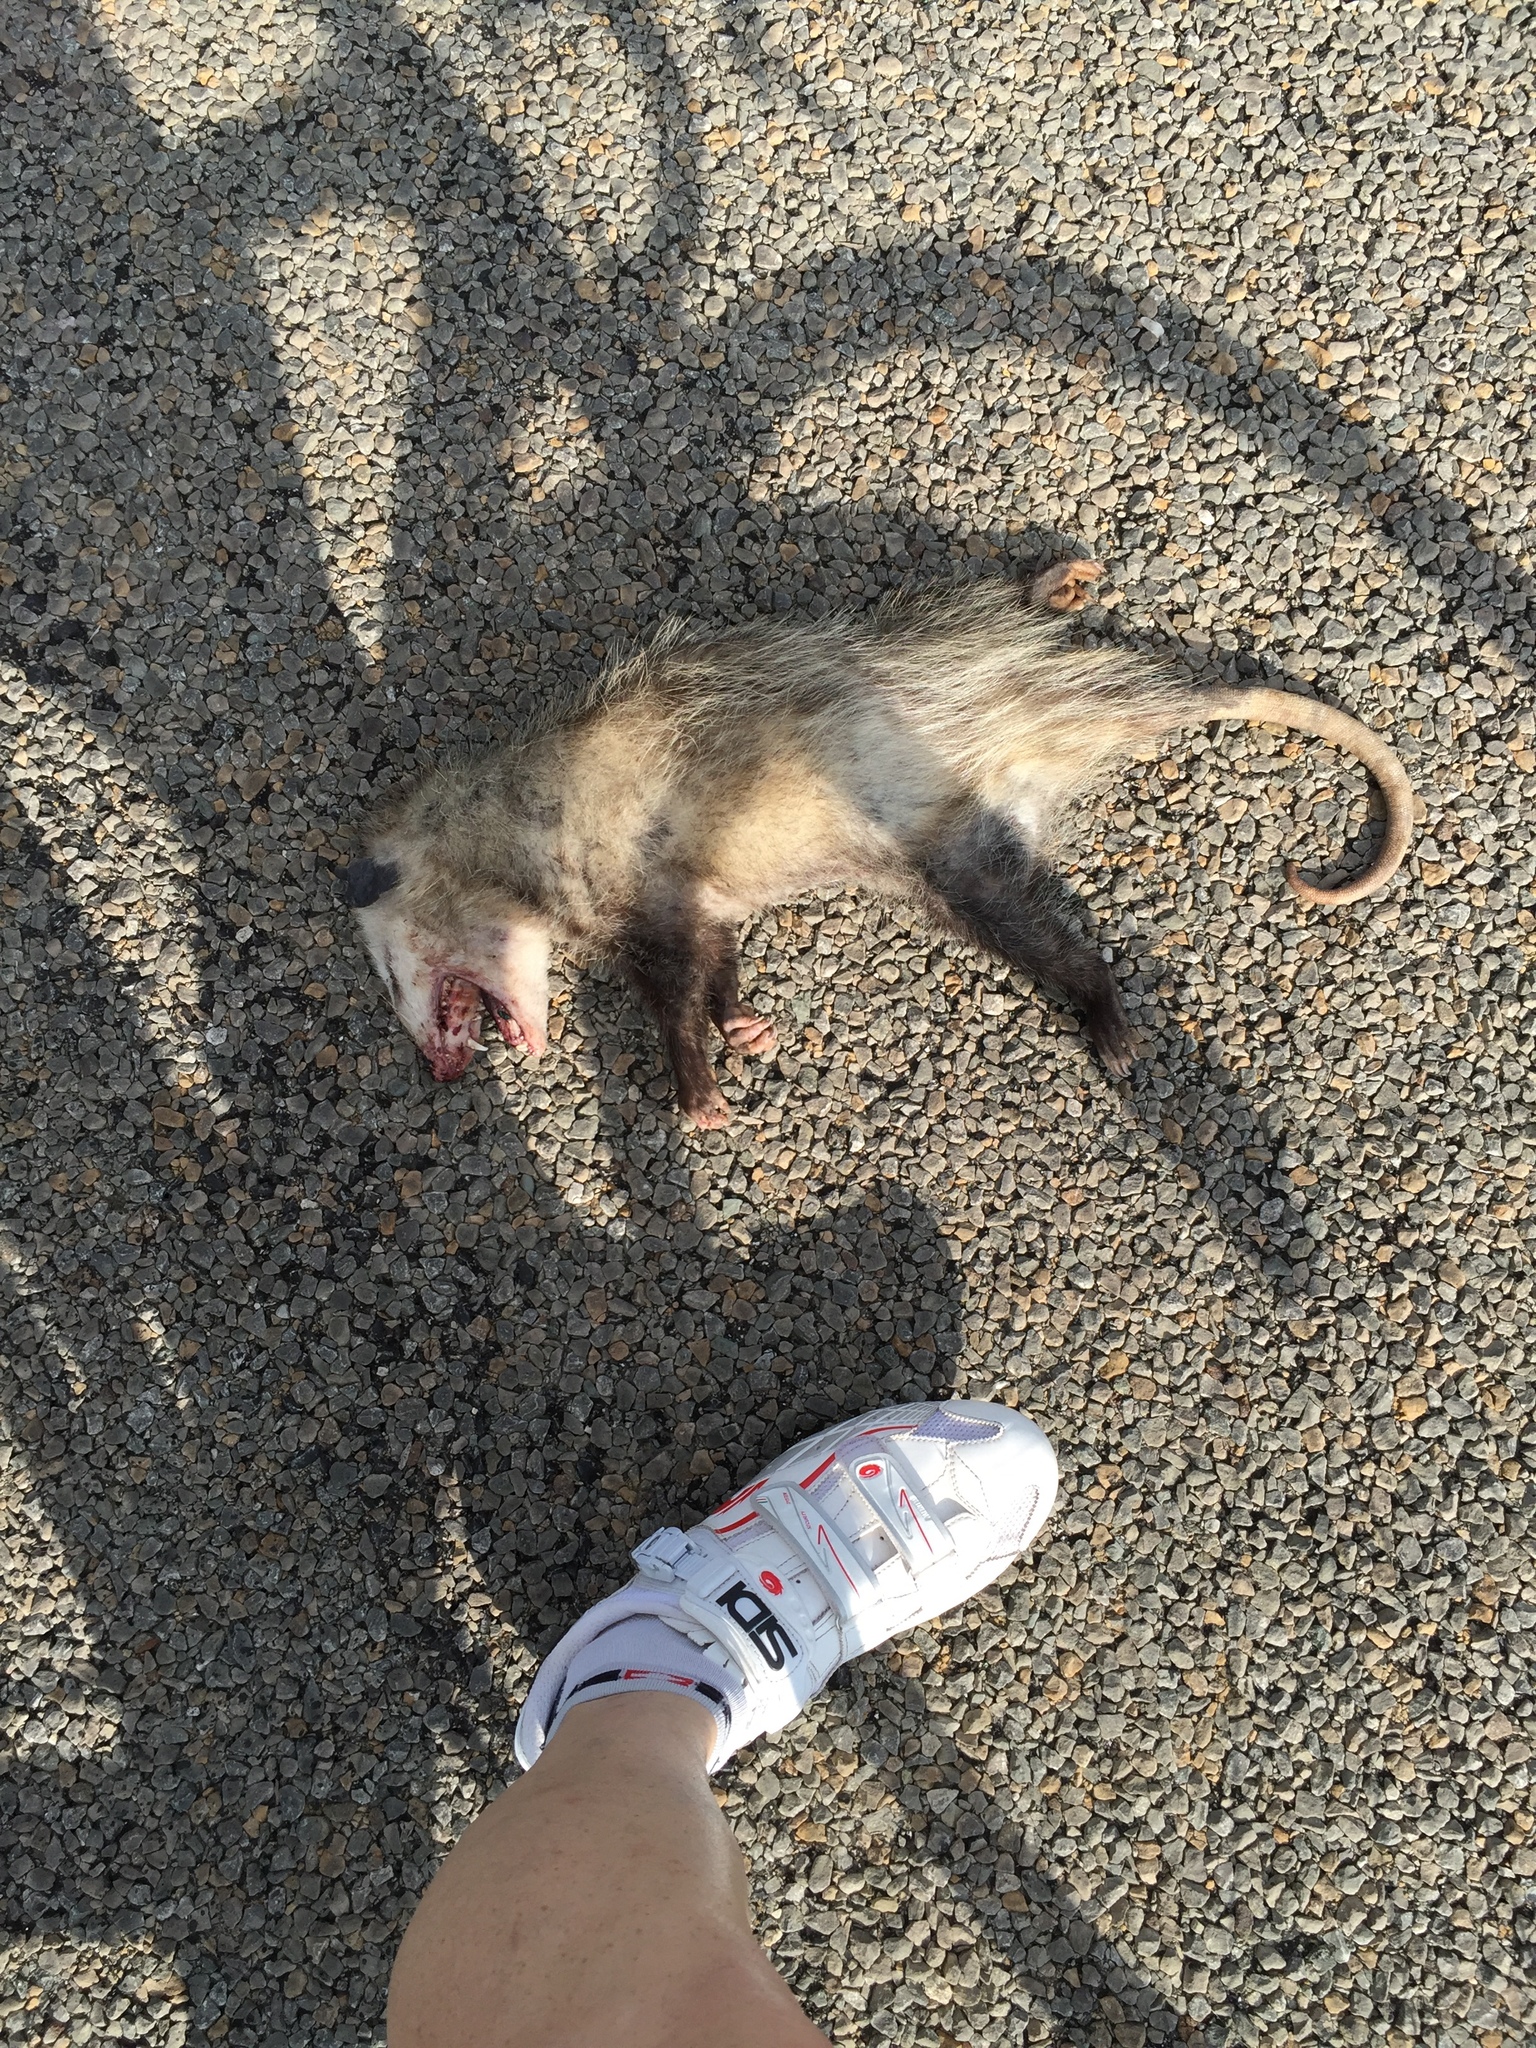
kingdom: Animalia
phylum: Chordata
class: Mammalia
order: Didelphimorphia
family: Didelphidae
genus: Didelphis
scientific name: Didelphis virginiana
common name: Virginia opossum
